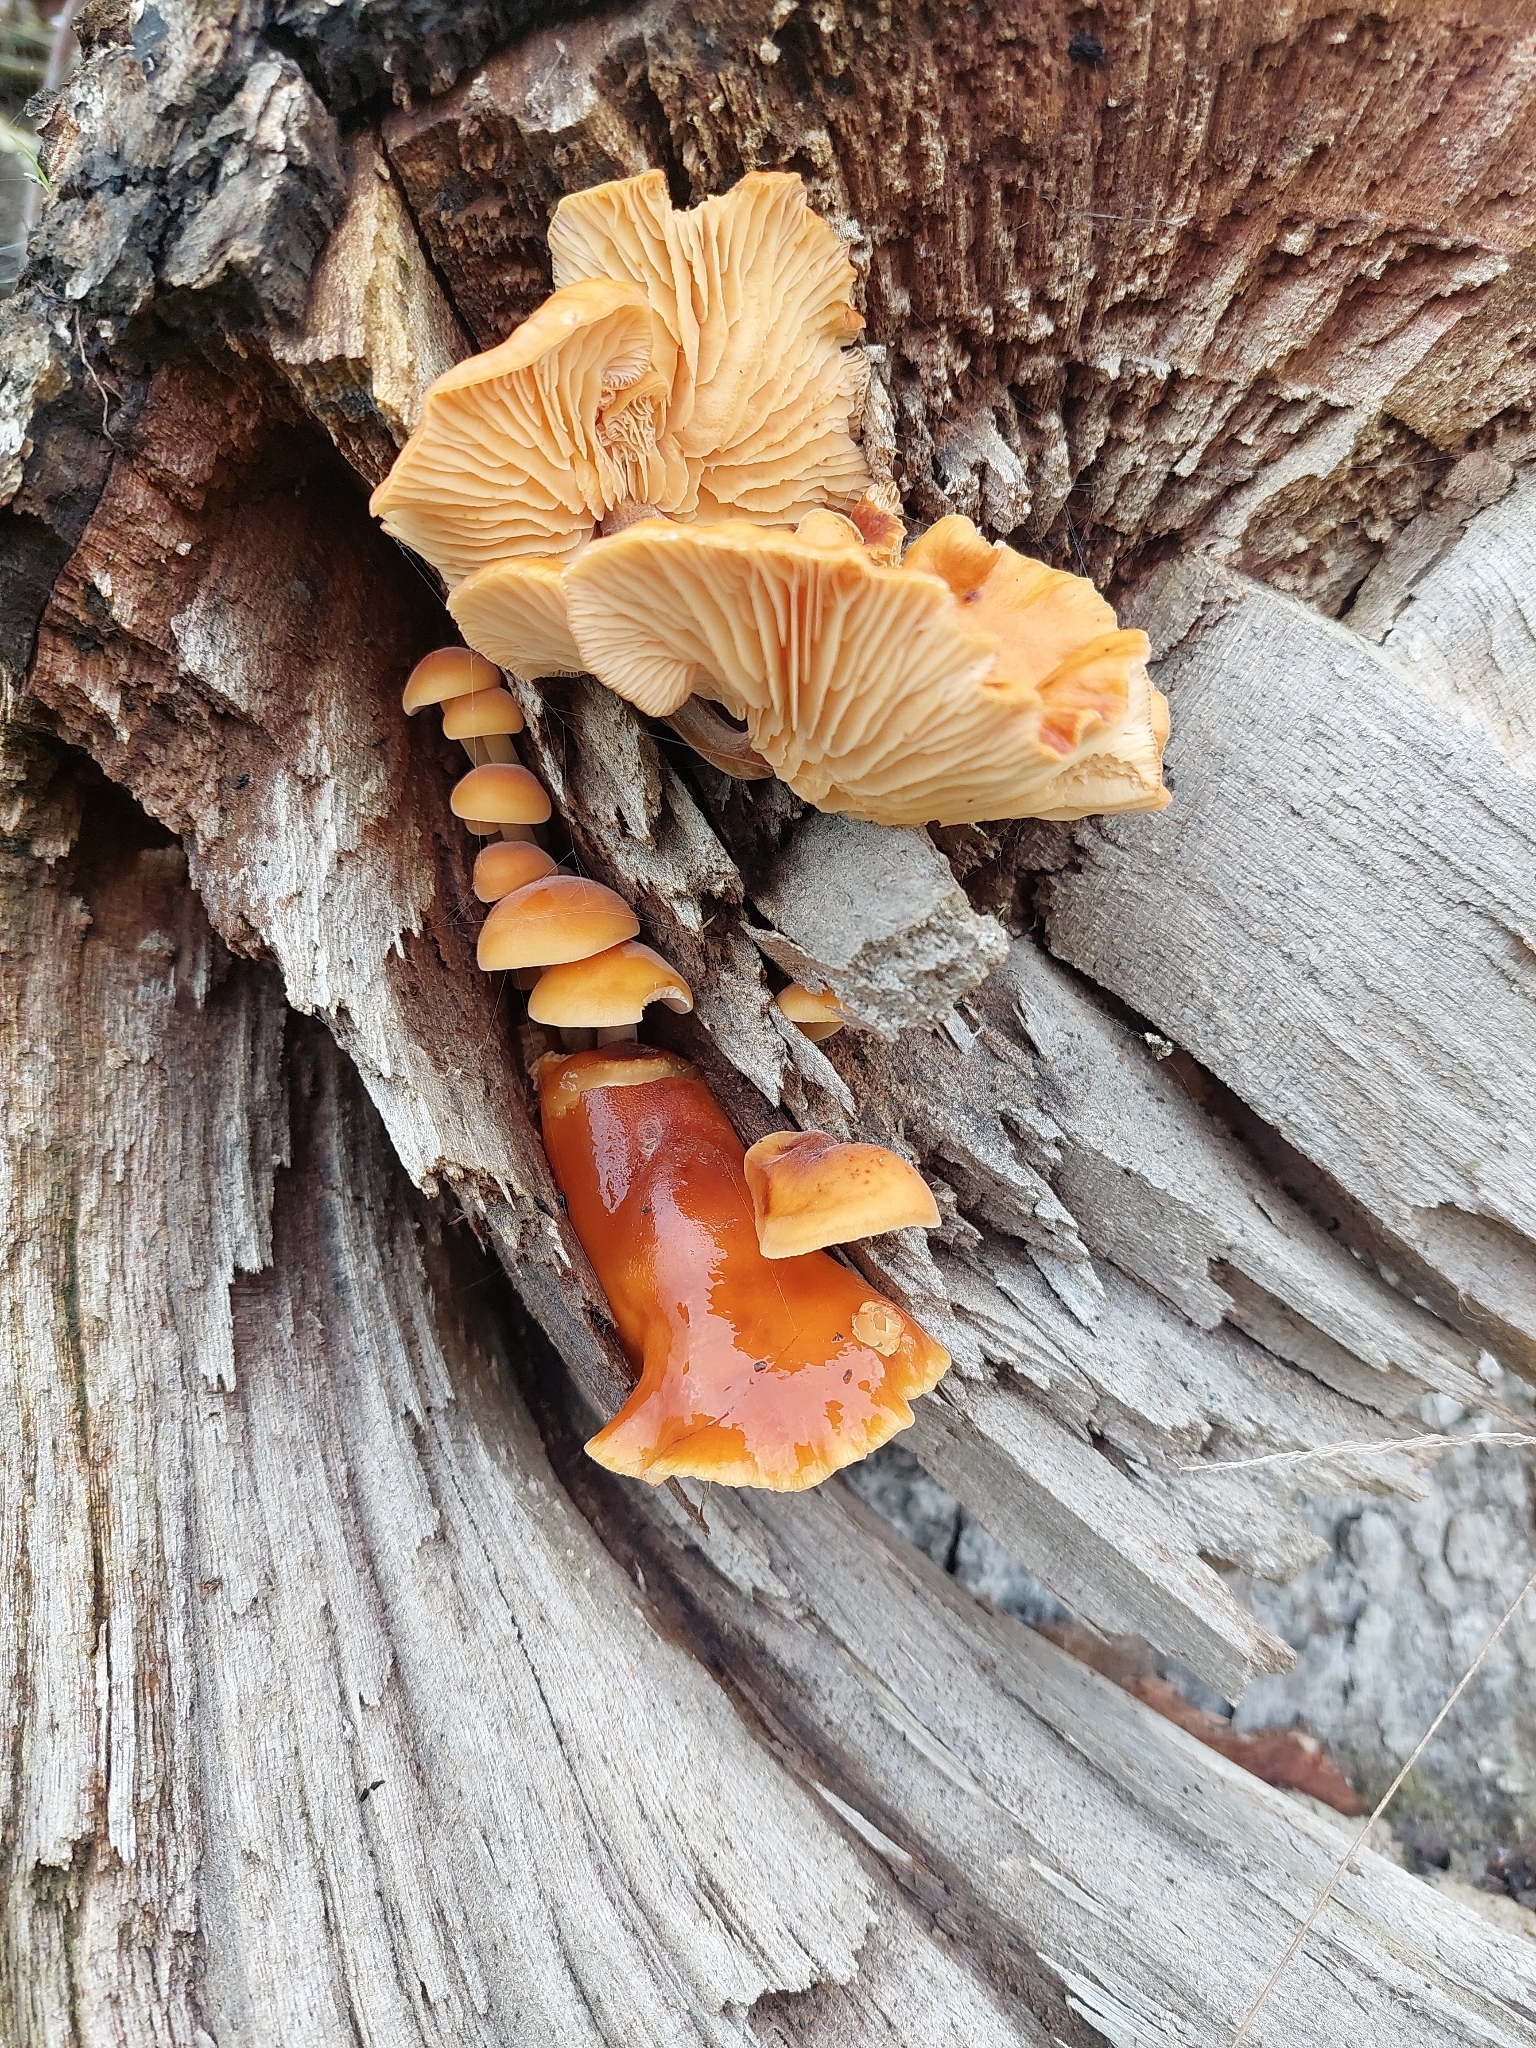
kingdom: Fungi
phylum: Basidiomycota
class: Agaricomycetes
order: Agaricales
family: Physalacriaceae
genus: Flammulina
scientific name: Flammulina
